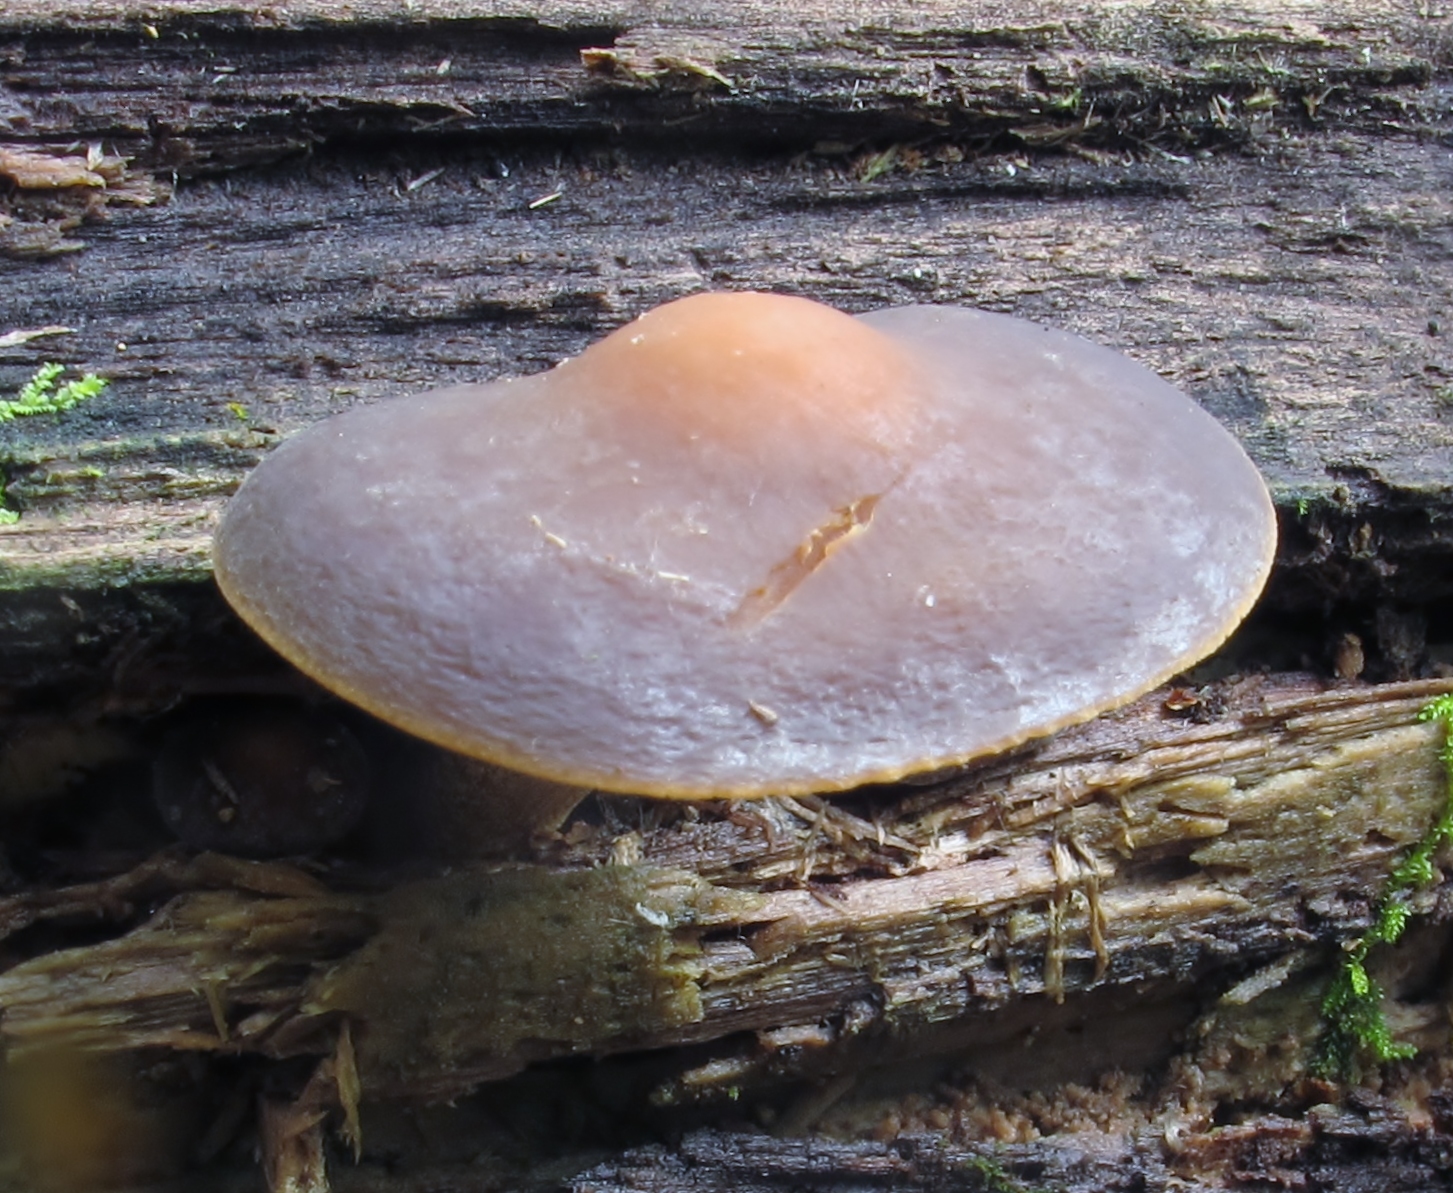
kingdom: Fungi
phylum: Basidiomycota
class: Agaricomycetes
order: Agaricales
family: Strophariaceae
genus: Agrocybe
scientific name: Agrocybe firma
